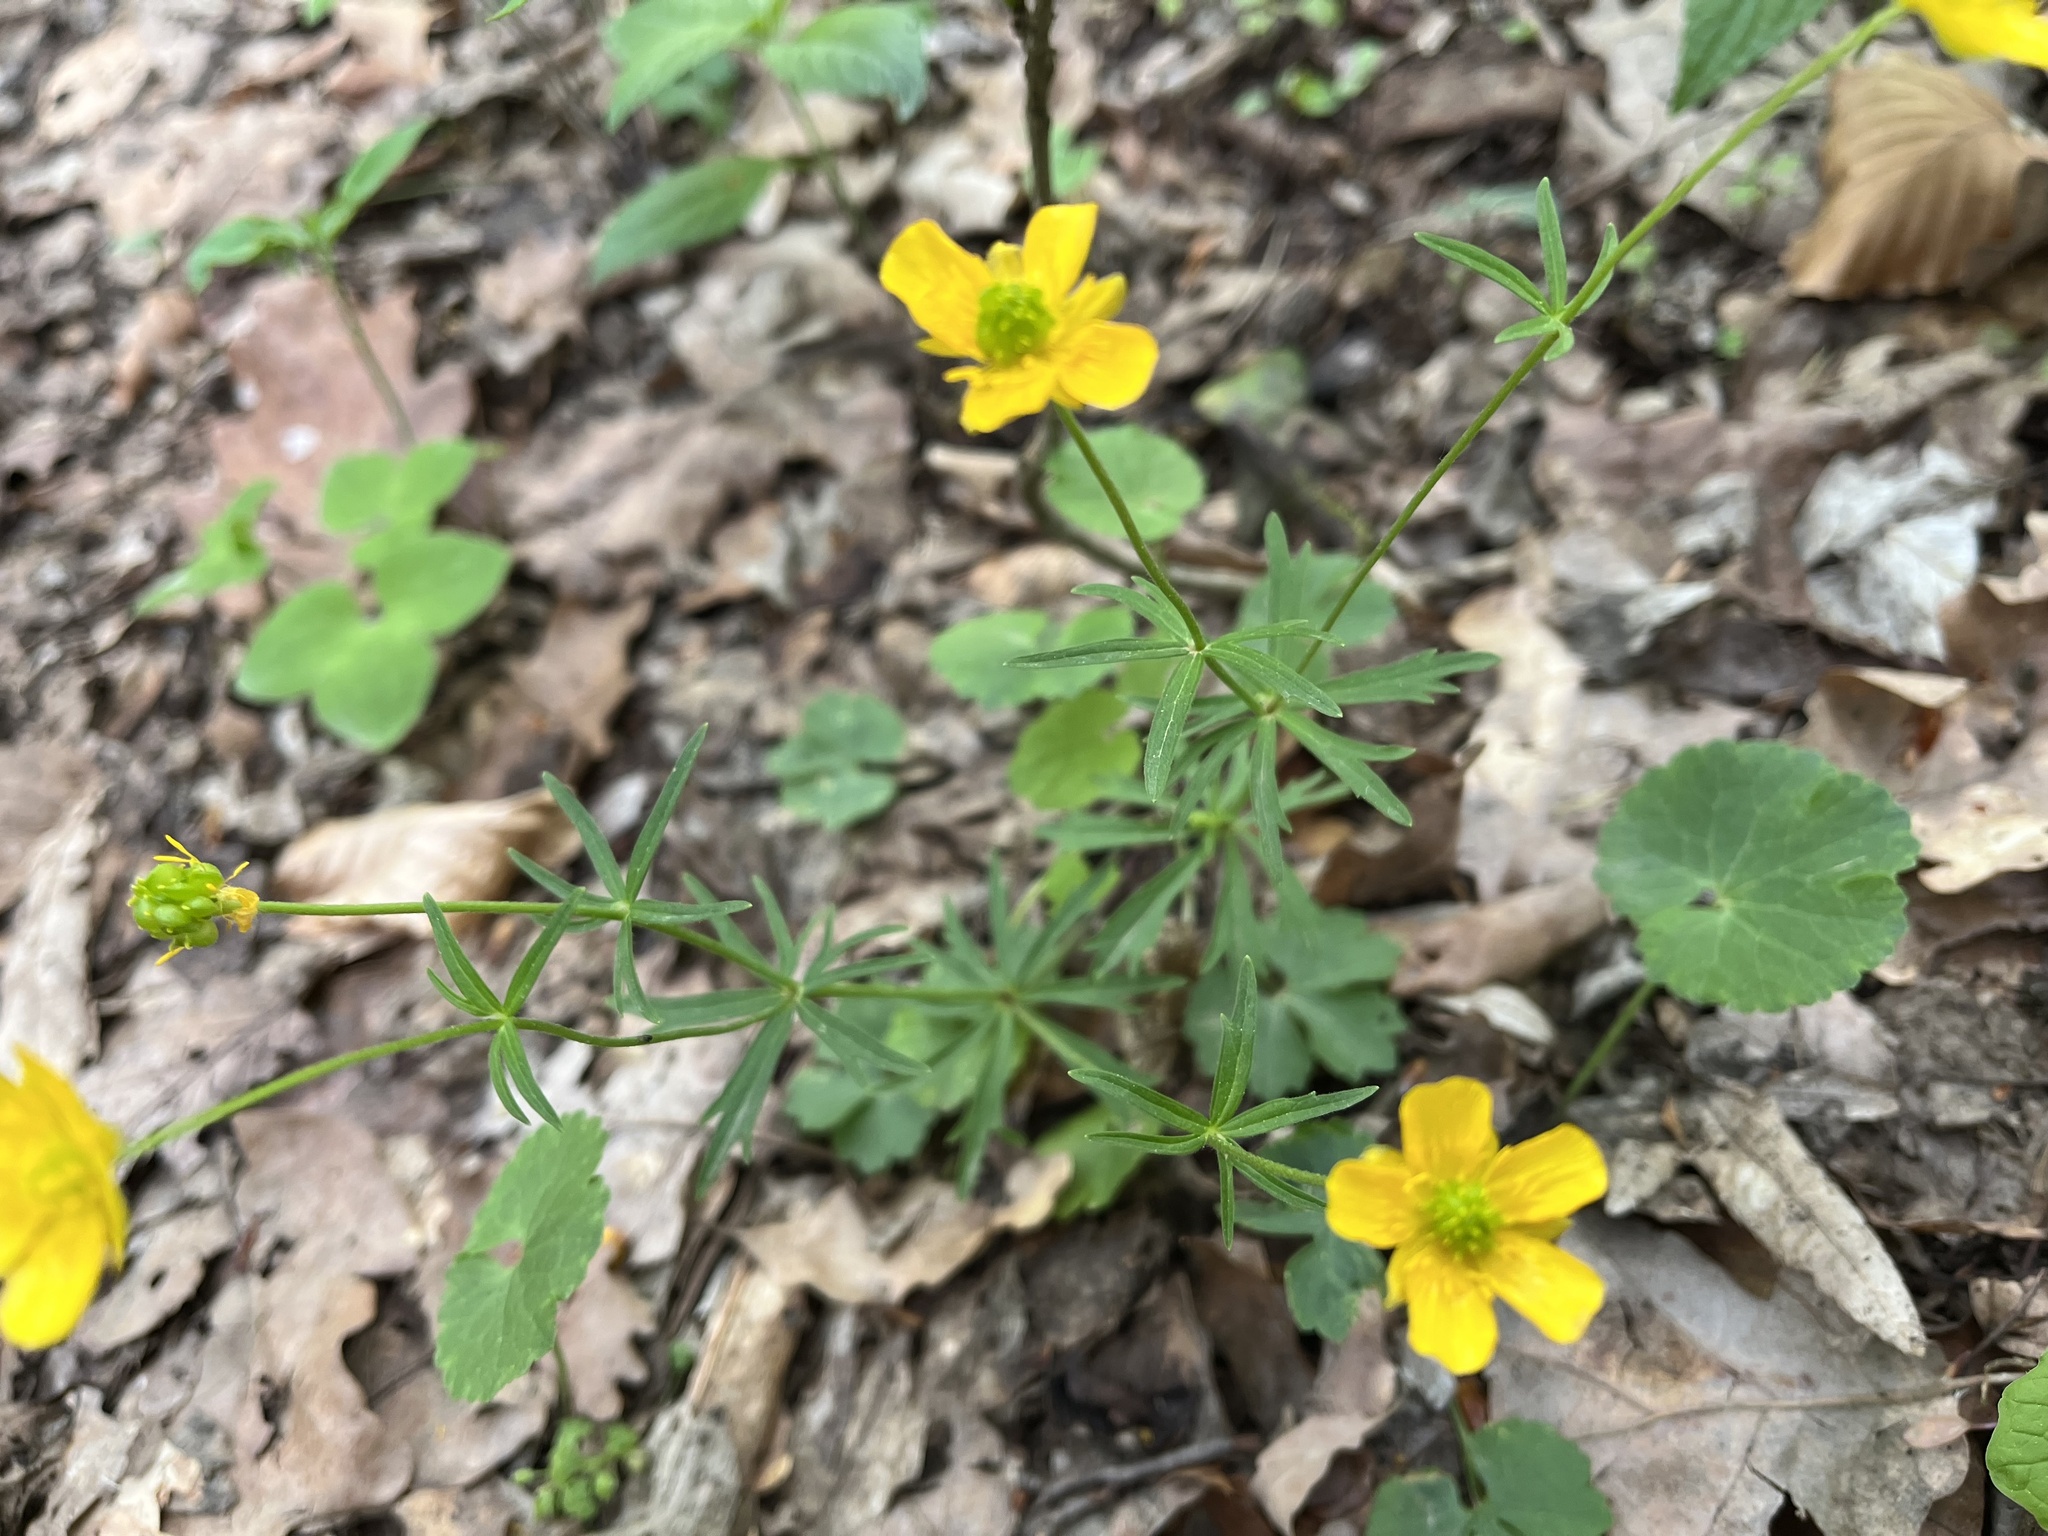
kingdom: Plantae
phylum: Tracheophyta
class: Magnoliopsida
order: Ranunculales
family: Ranunculaceae
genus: Ranunculus
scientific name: Ranunculus auricomus
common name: Goldilocks buttercup
